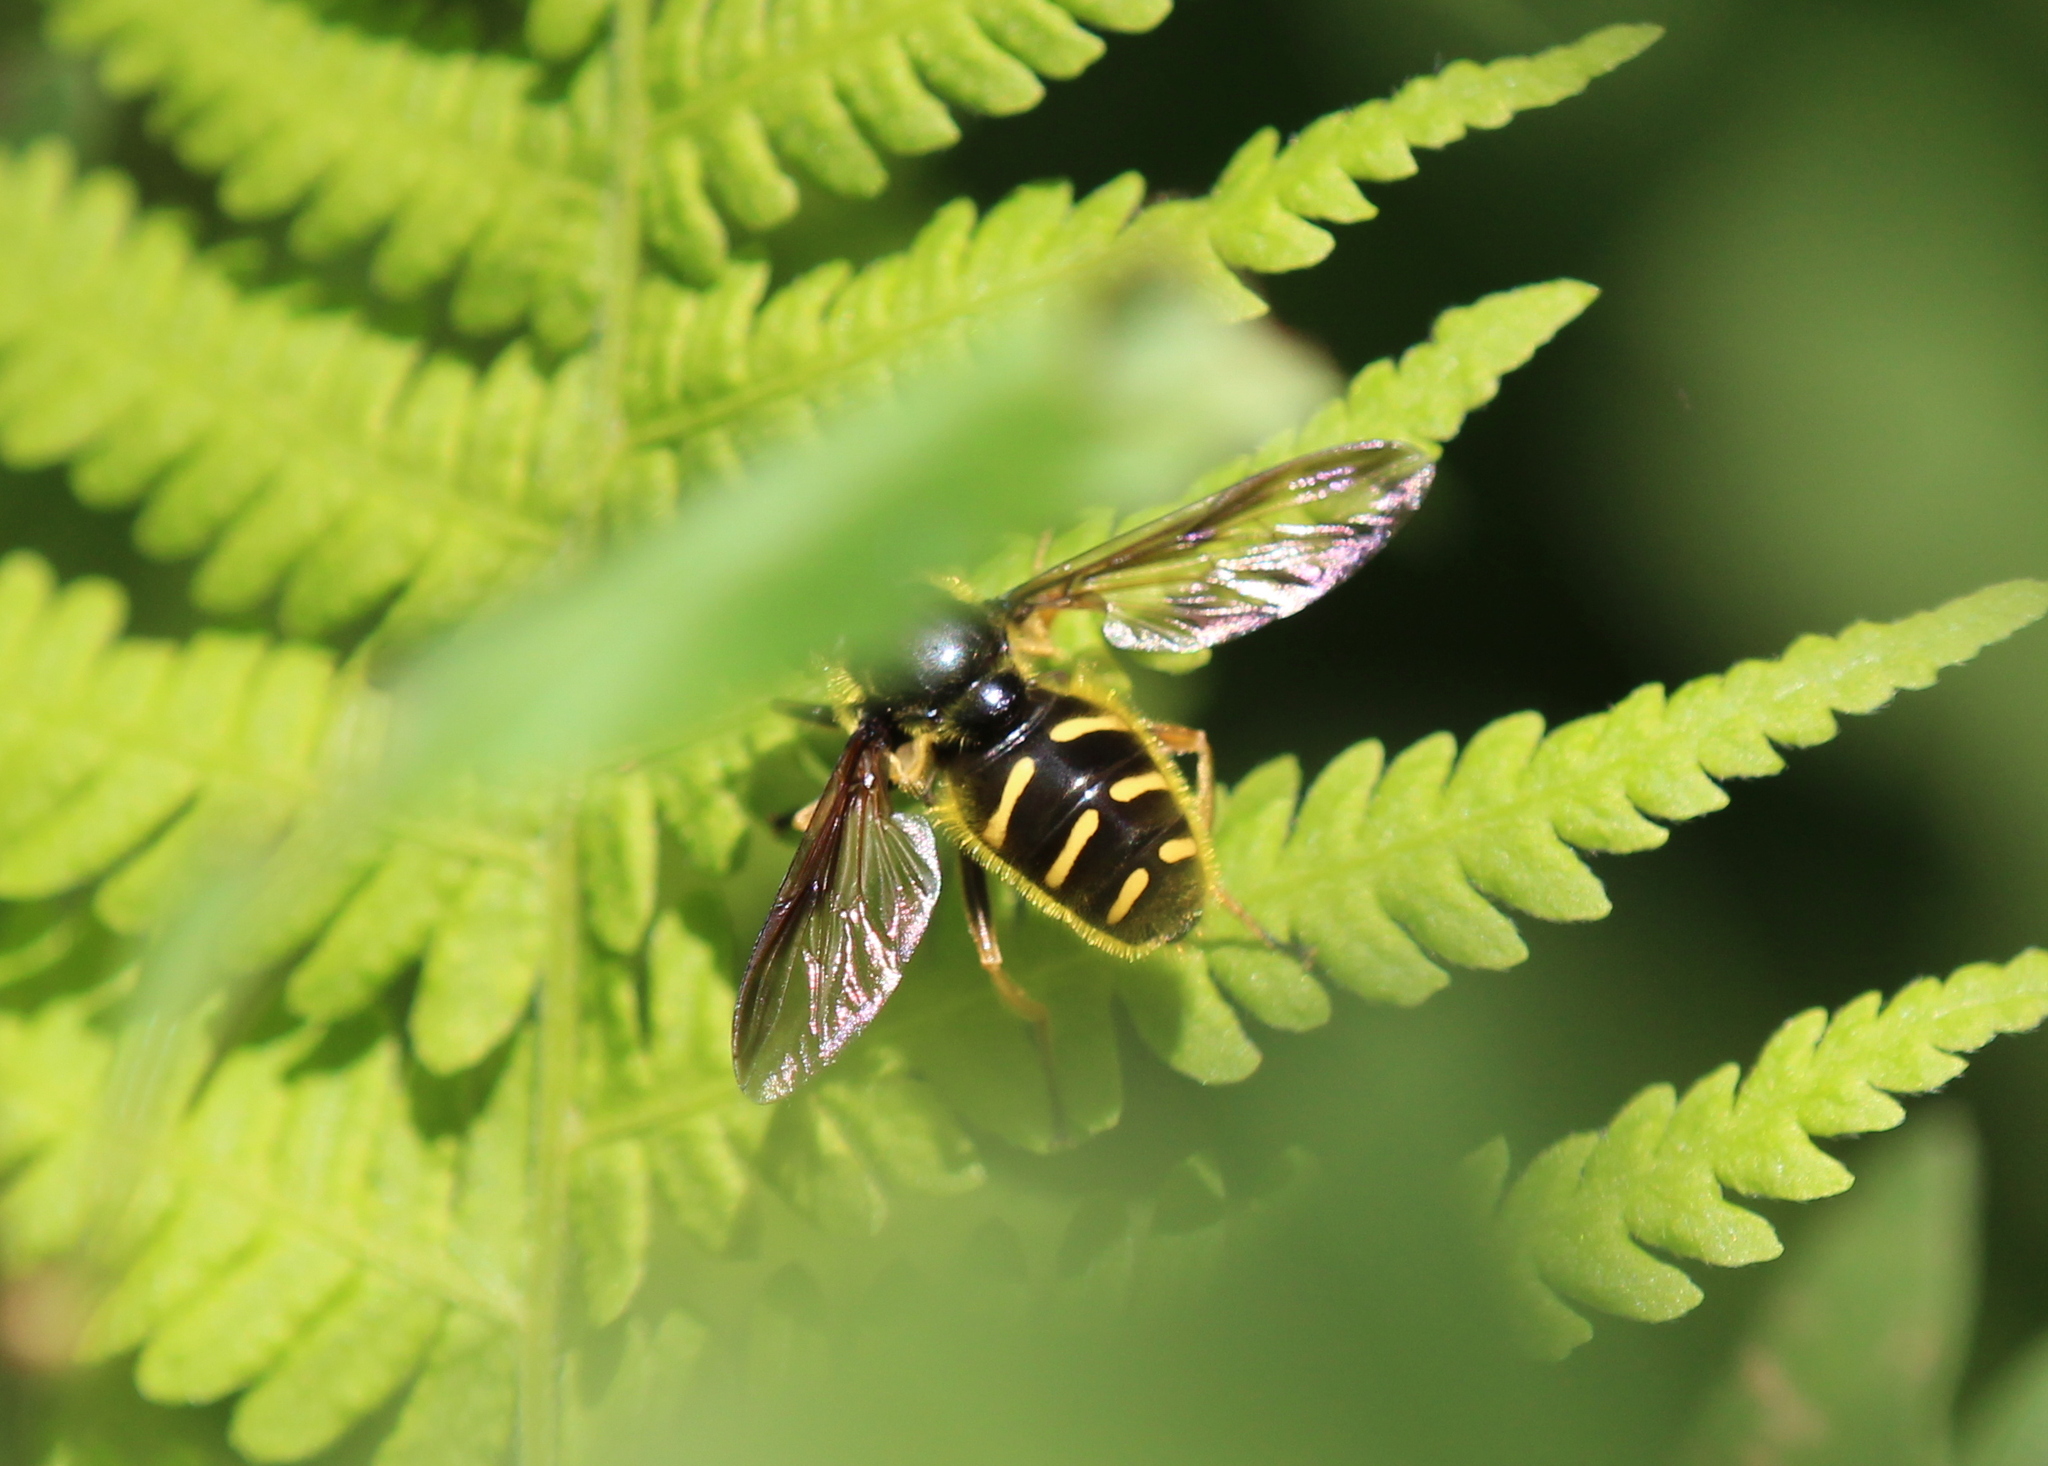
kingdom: Animalia
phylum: Arthropoda
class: Insecta
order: Diptera
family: Syrphidae
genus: Sericomyia
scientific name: Sericomyia chrysotoxoides
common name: Oblique-banded pond fly
